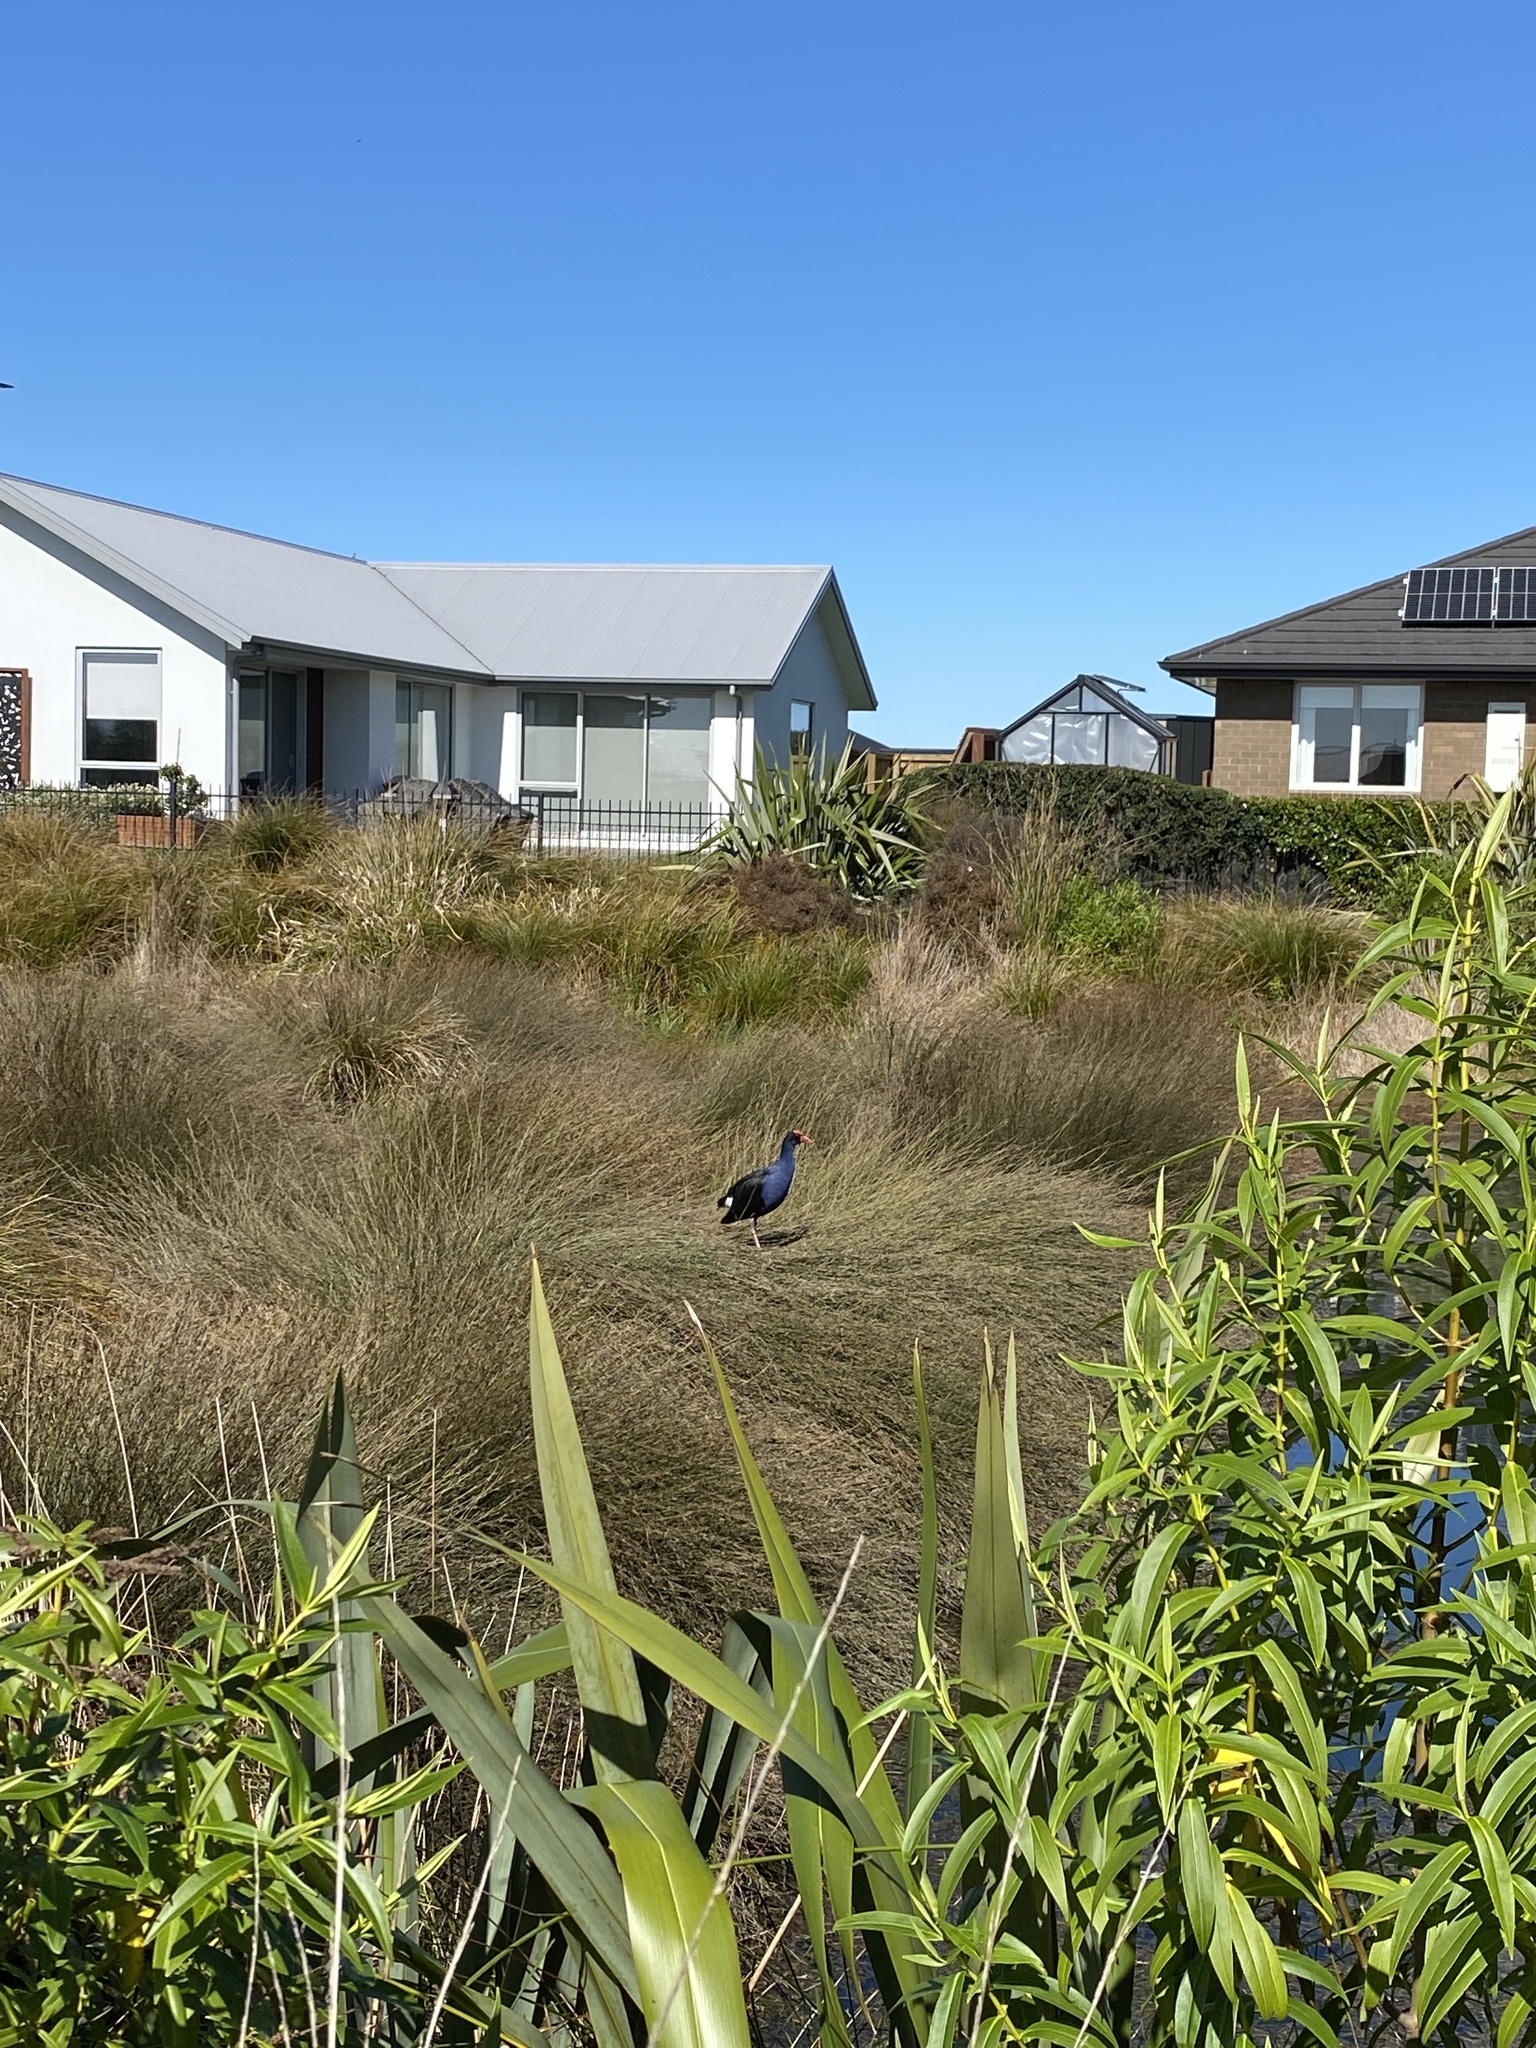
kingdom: Animalia
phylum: Chordata
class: Aves
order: Gruiformes
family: Rallidae
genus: Porphyrio
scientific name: Porphyrio melanotus
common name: Australasian swamphen
